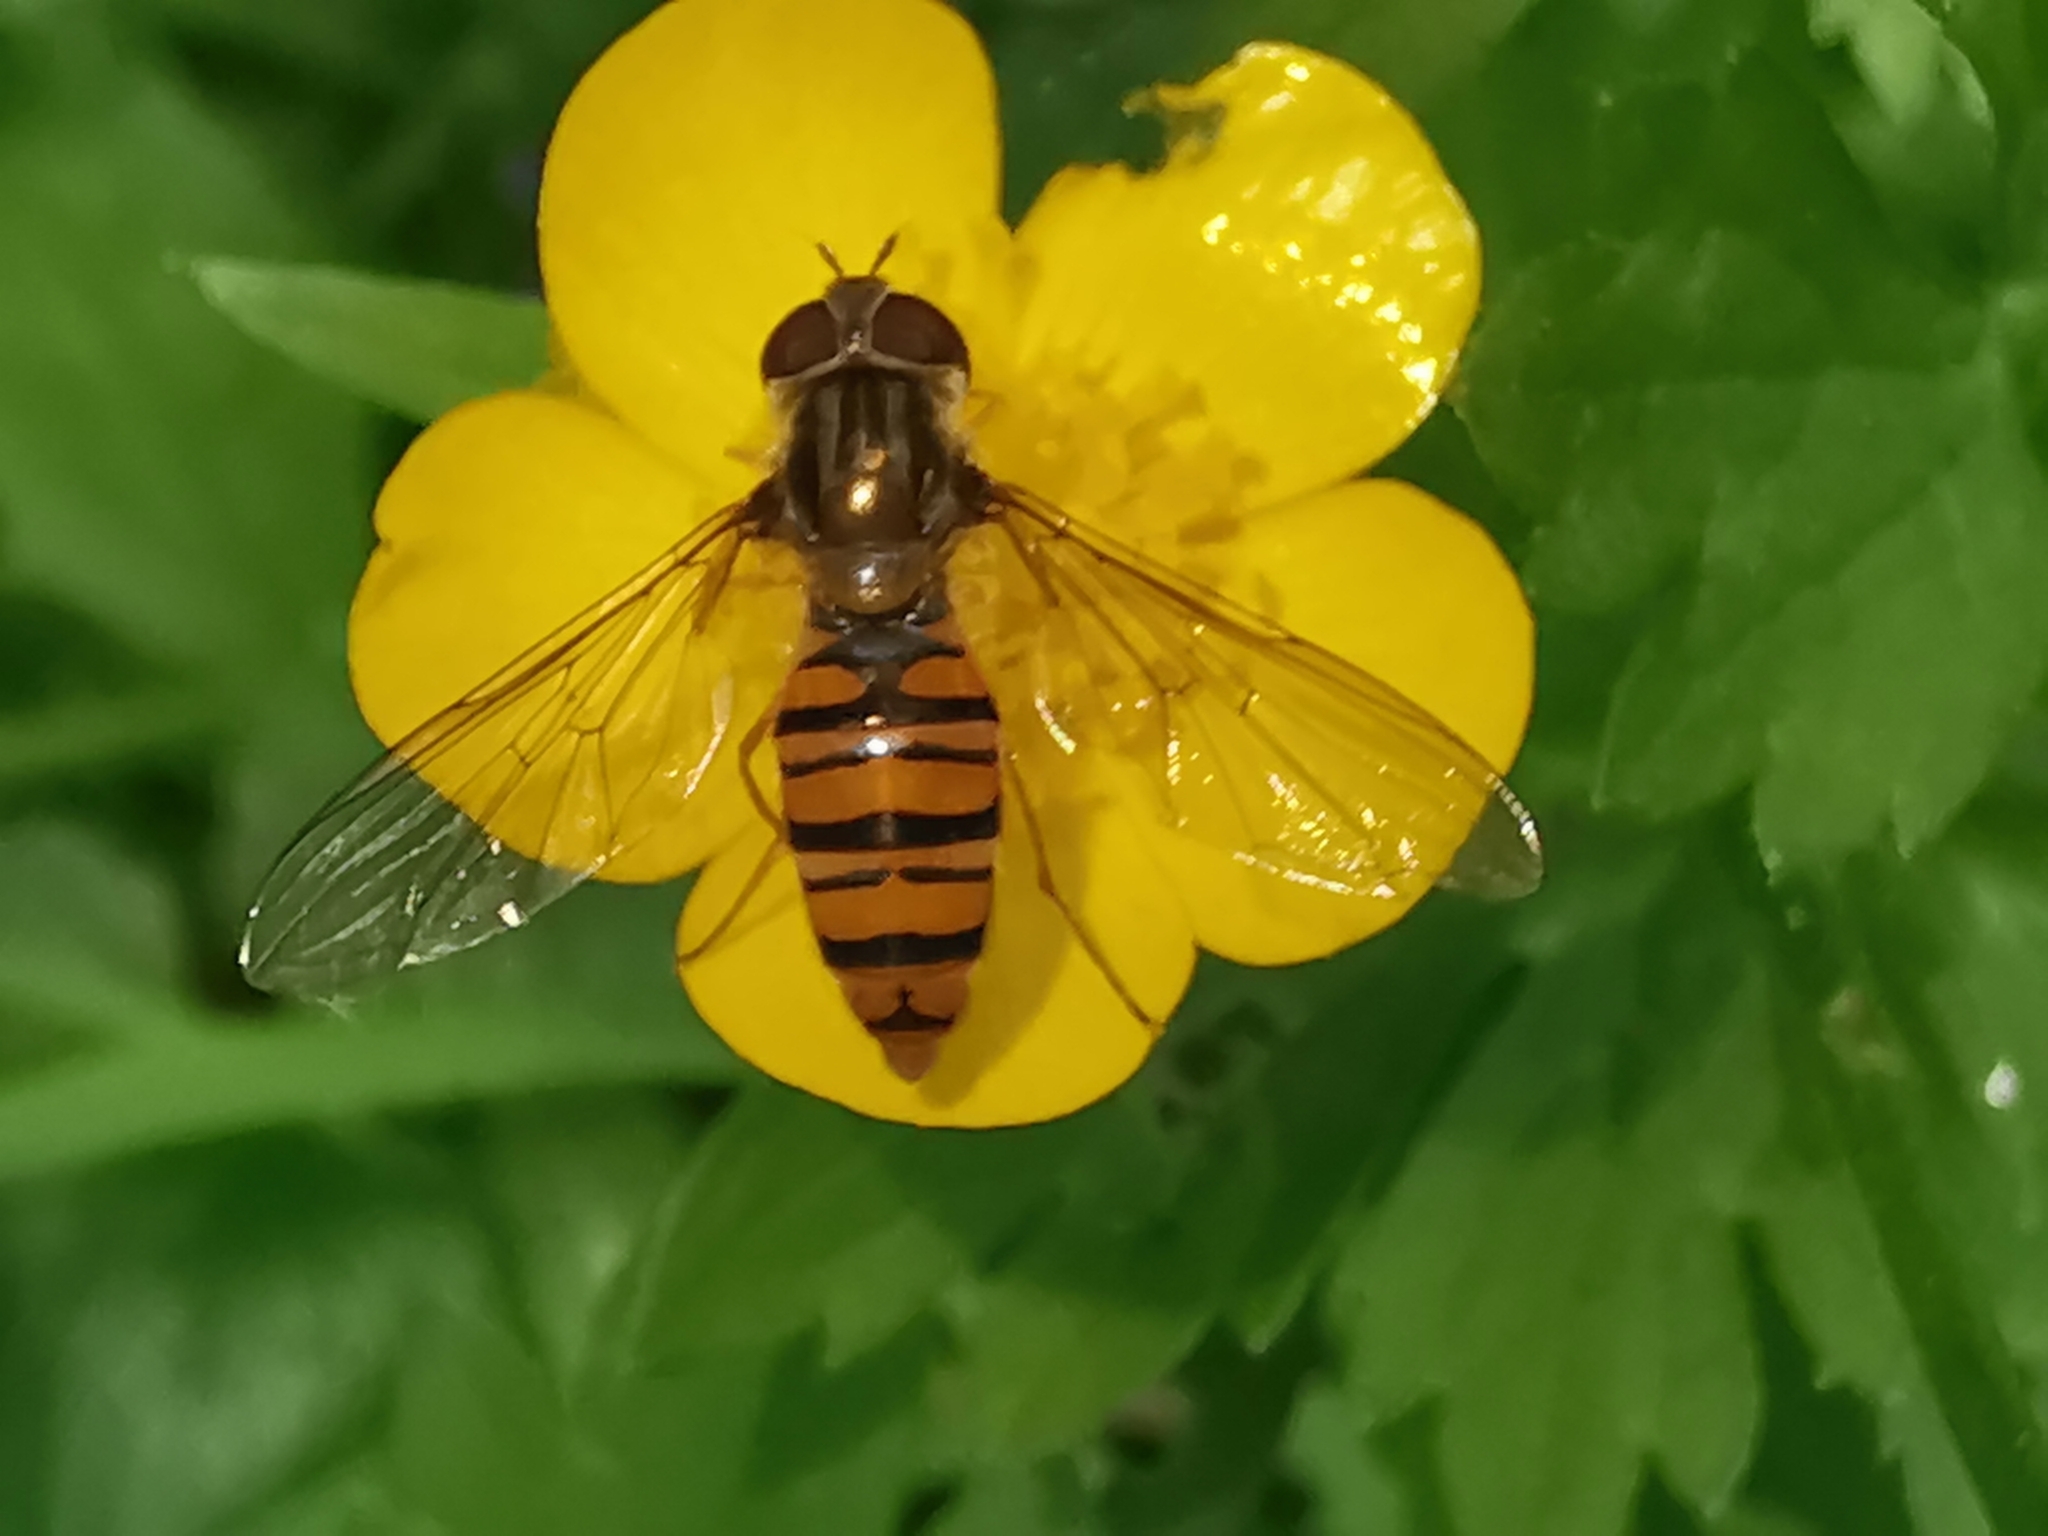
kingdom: Animalia
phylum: Arthropoda
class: Insecta
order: Diptera
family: Syrphidae
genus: Episyrphus
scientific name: Episyrphus balteatus
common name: Marmalade hoverfly
